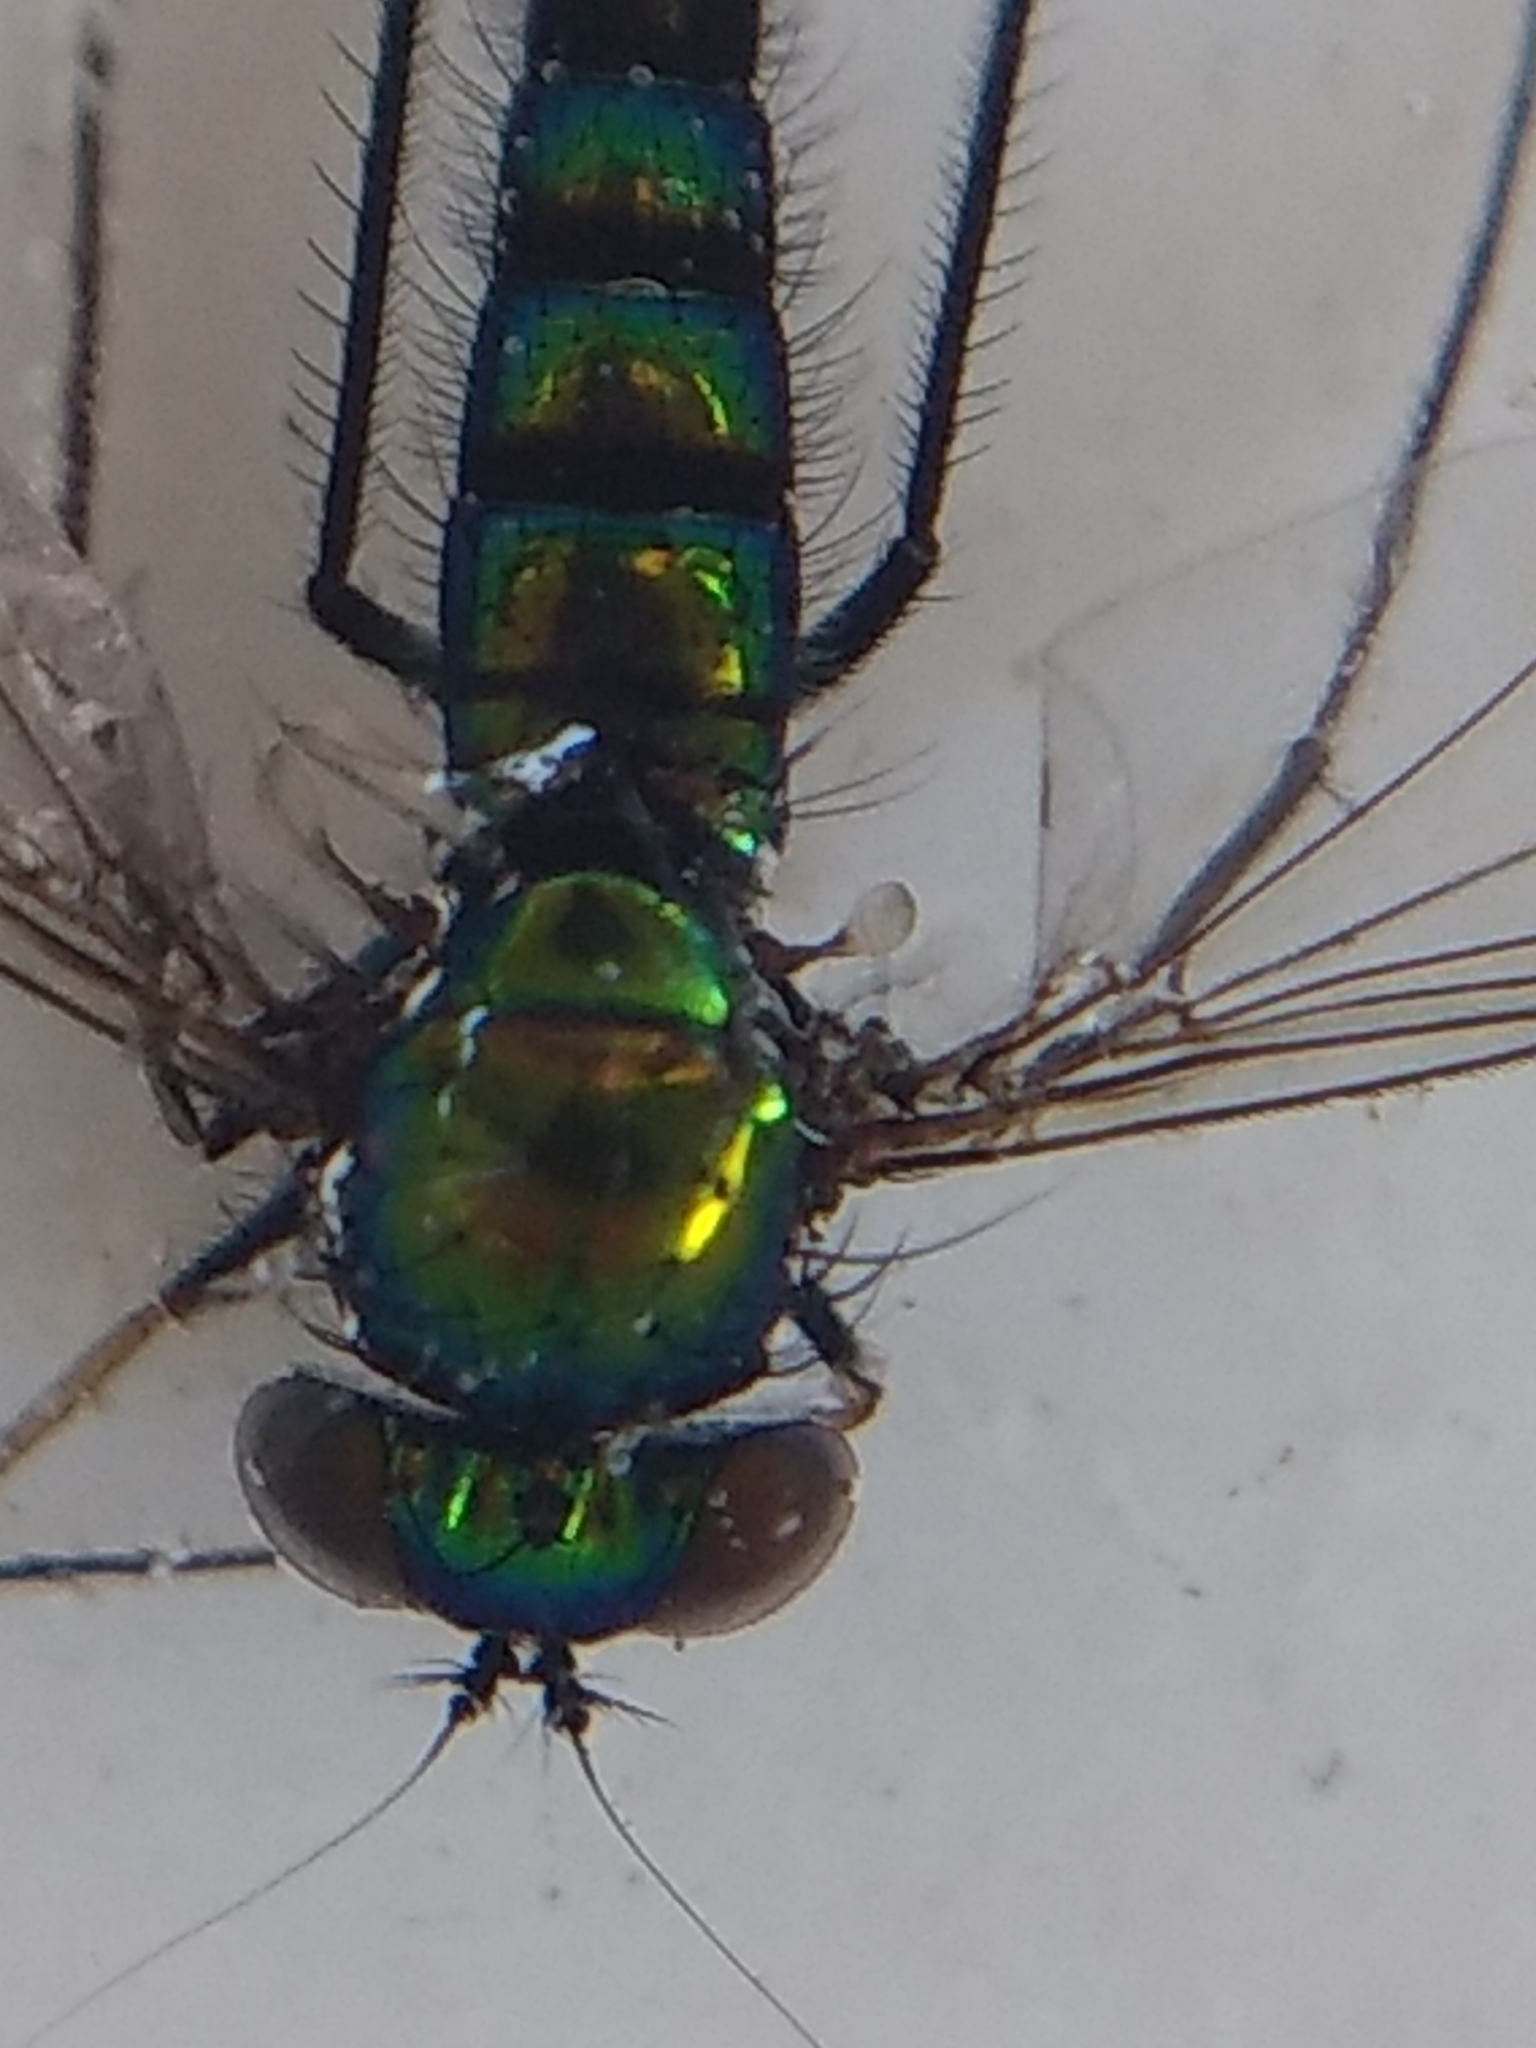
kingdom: Animalia
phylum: Arthropoda
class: Insecta
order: Diptera
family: Dolichopodidae
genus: Condylostylus
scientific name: Condylostylus longicornis
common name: Long-legged fly
